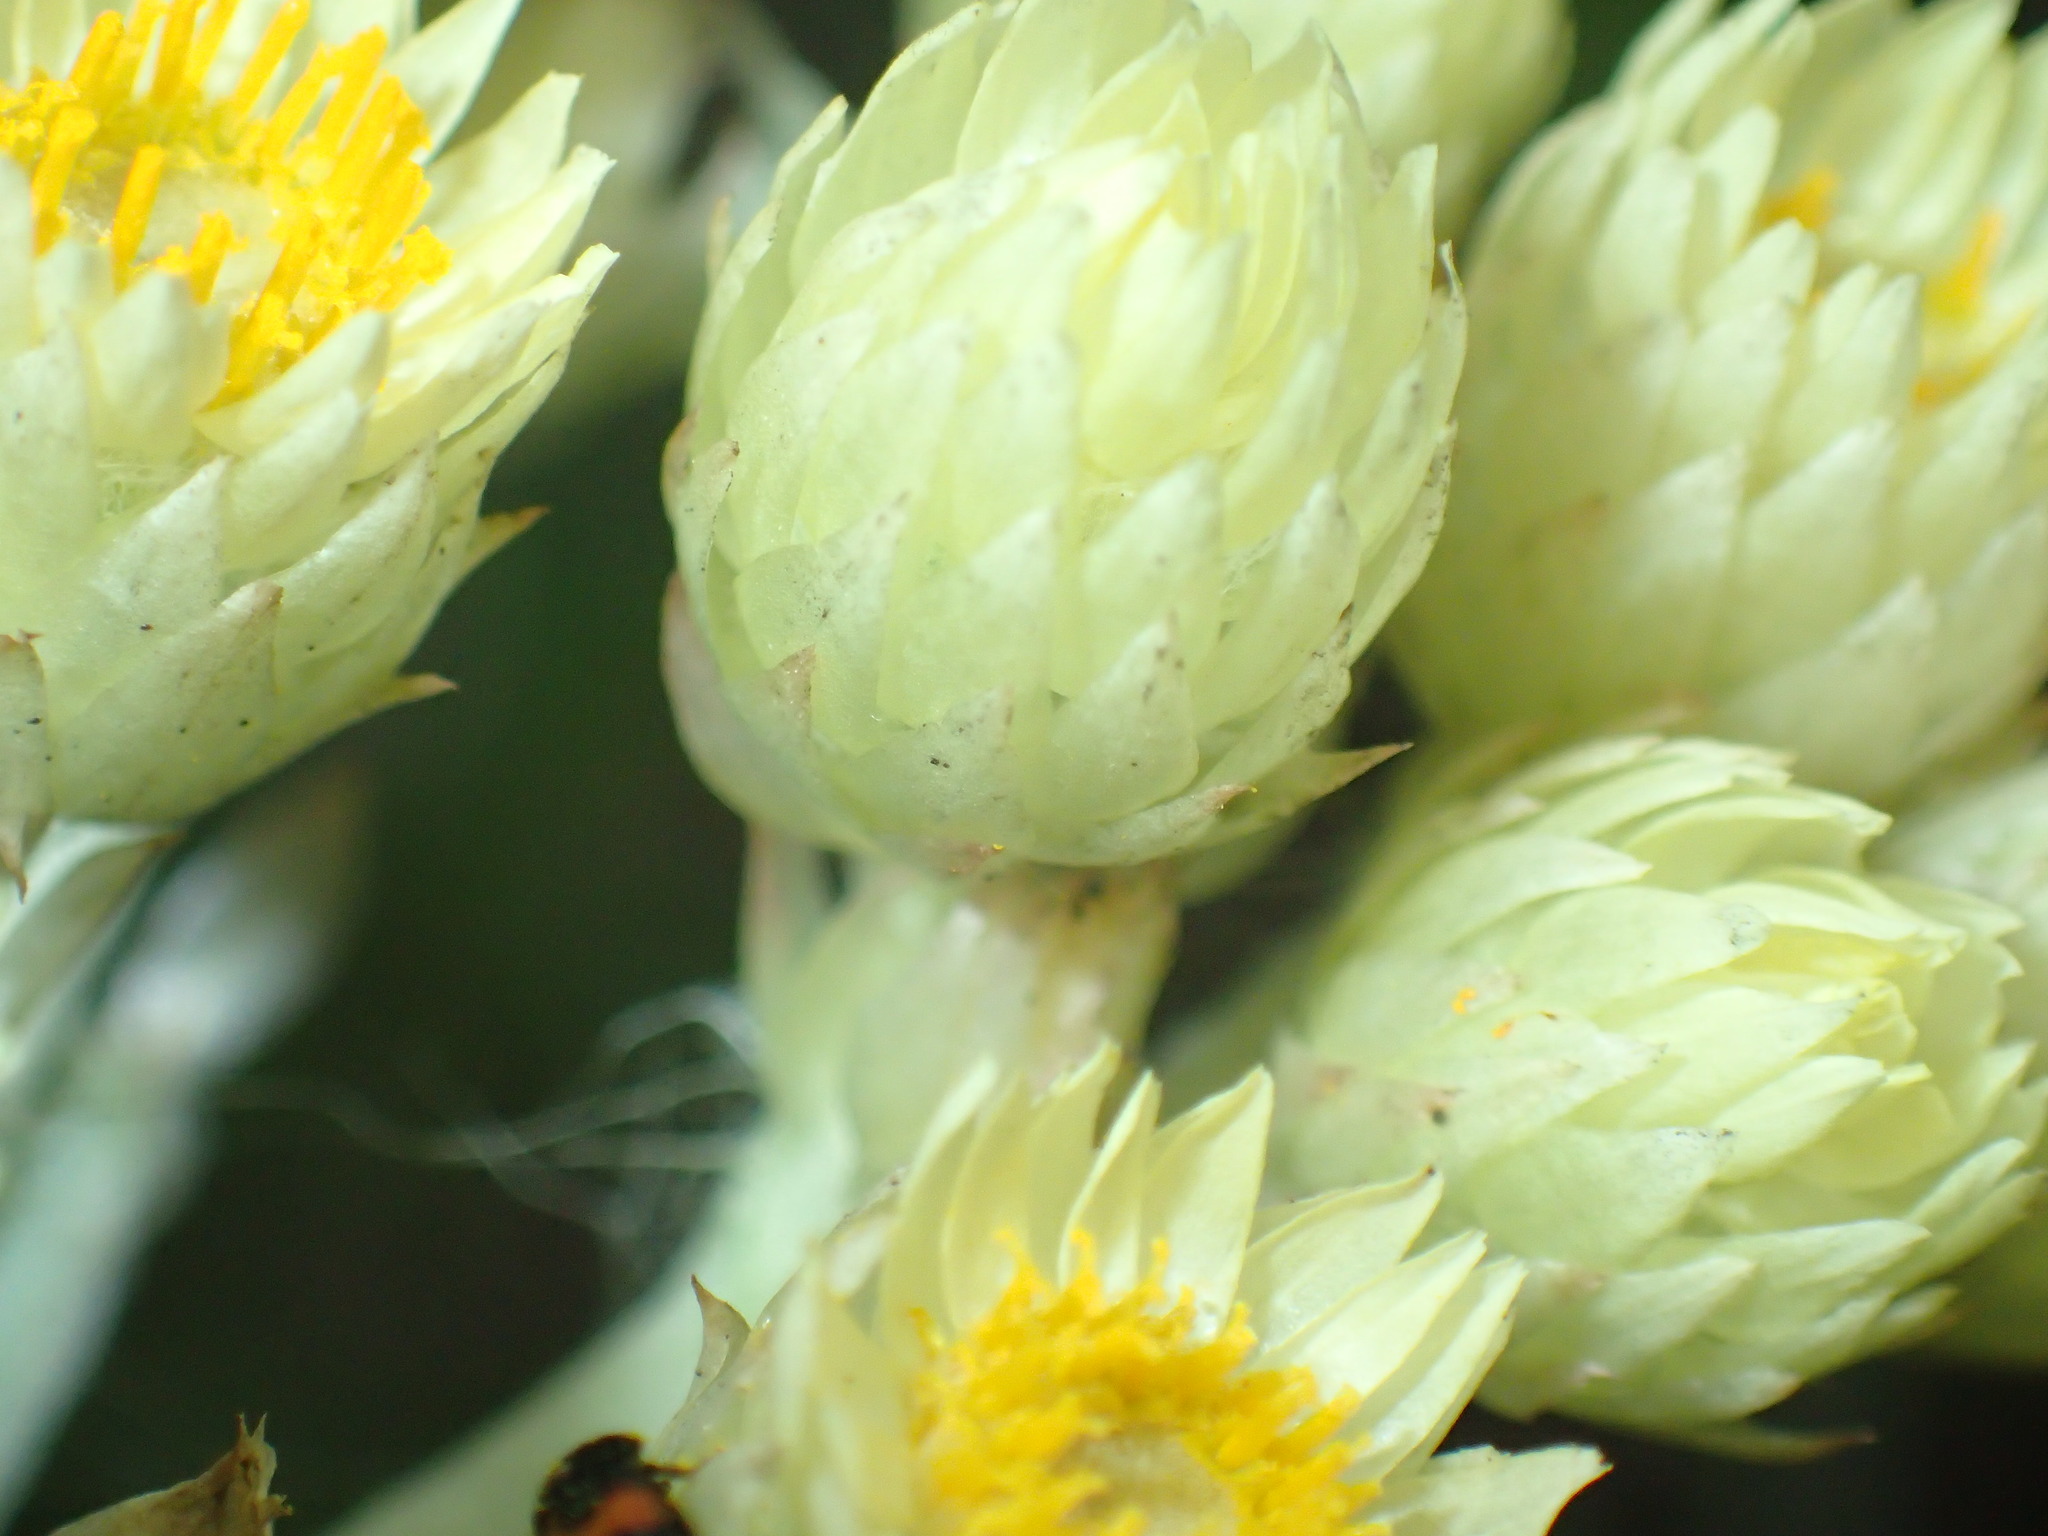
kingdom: Plantae
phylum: Tracheophyta
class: Magnoliopsida
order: Asterales
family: Asteraceae
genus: Helichrysum
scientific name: Helichrysum auriceps
